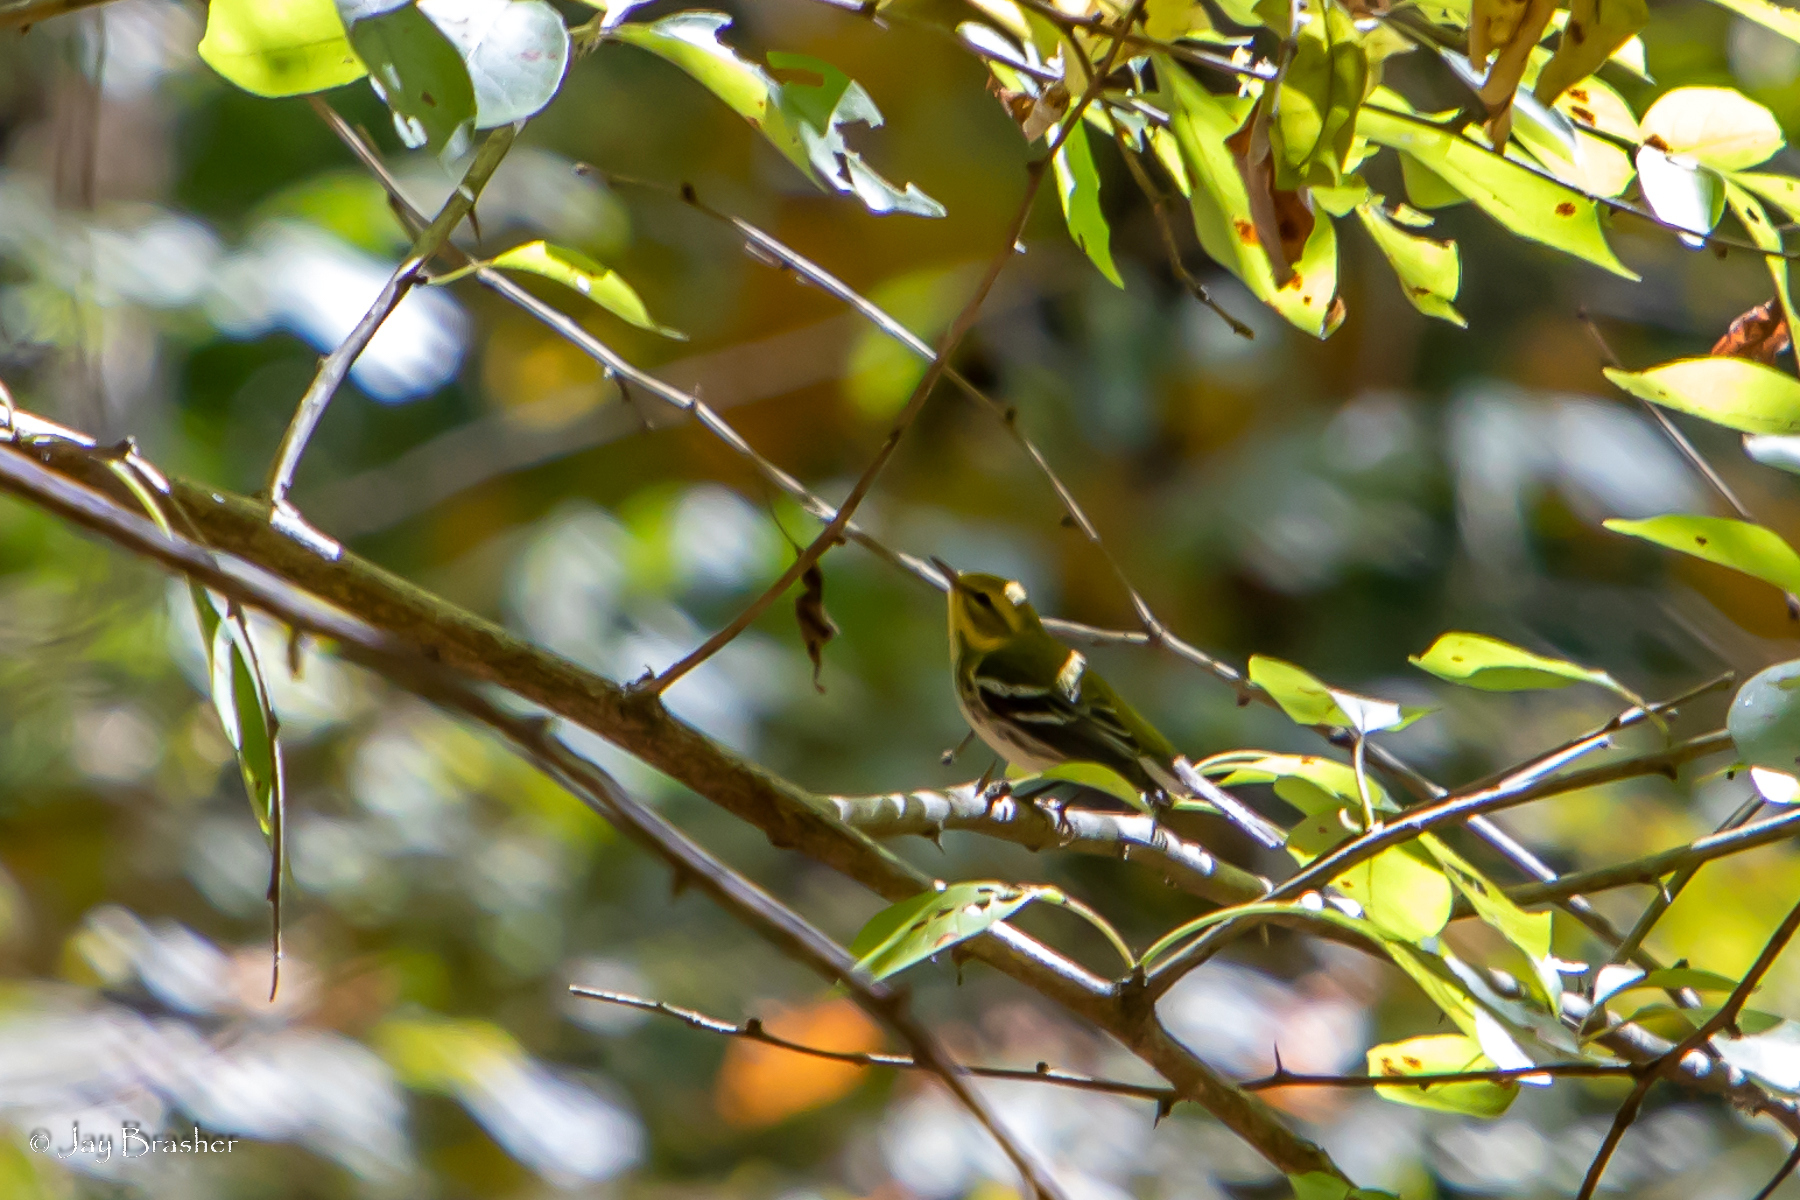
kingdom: Animalia
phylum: Chordata
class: Aves
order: Passeriformes
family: Parulidae
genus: Setophaga
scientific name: Setophaga virens
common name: Black-throated green warbler
